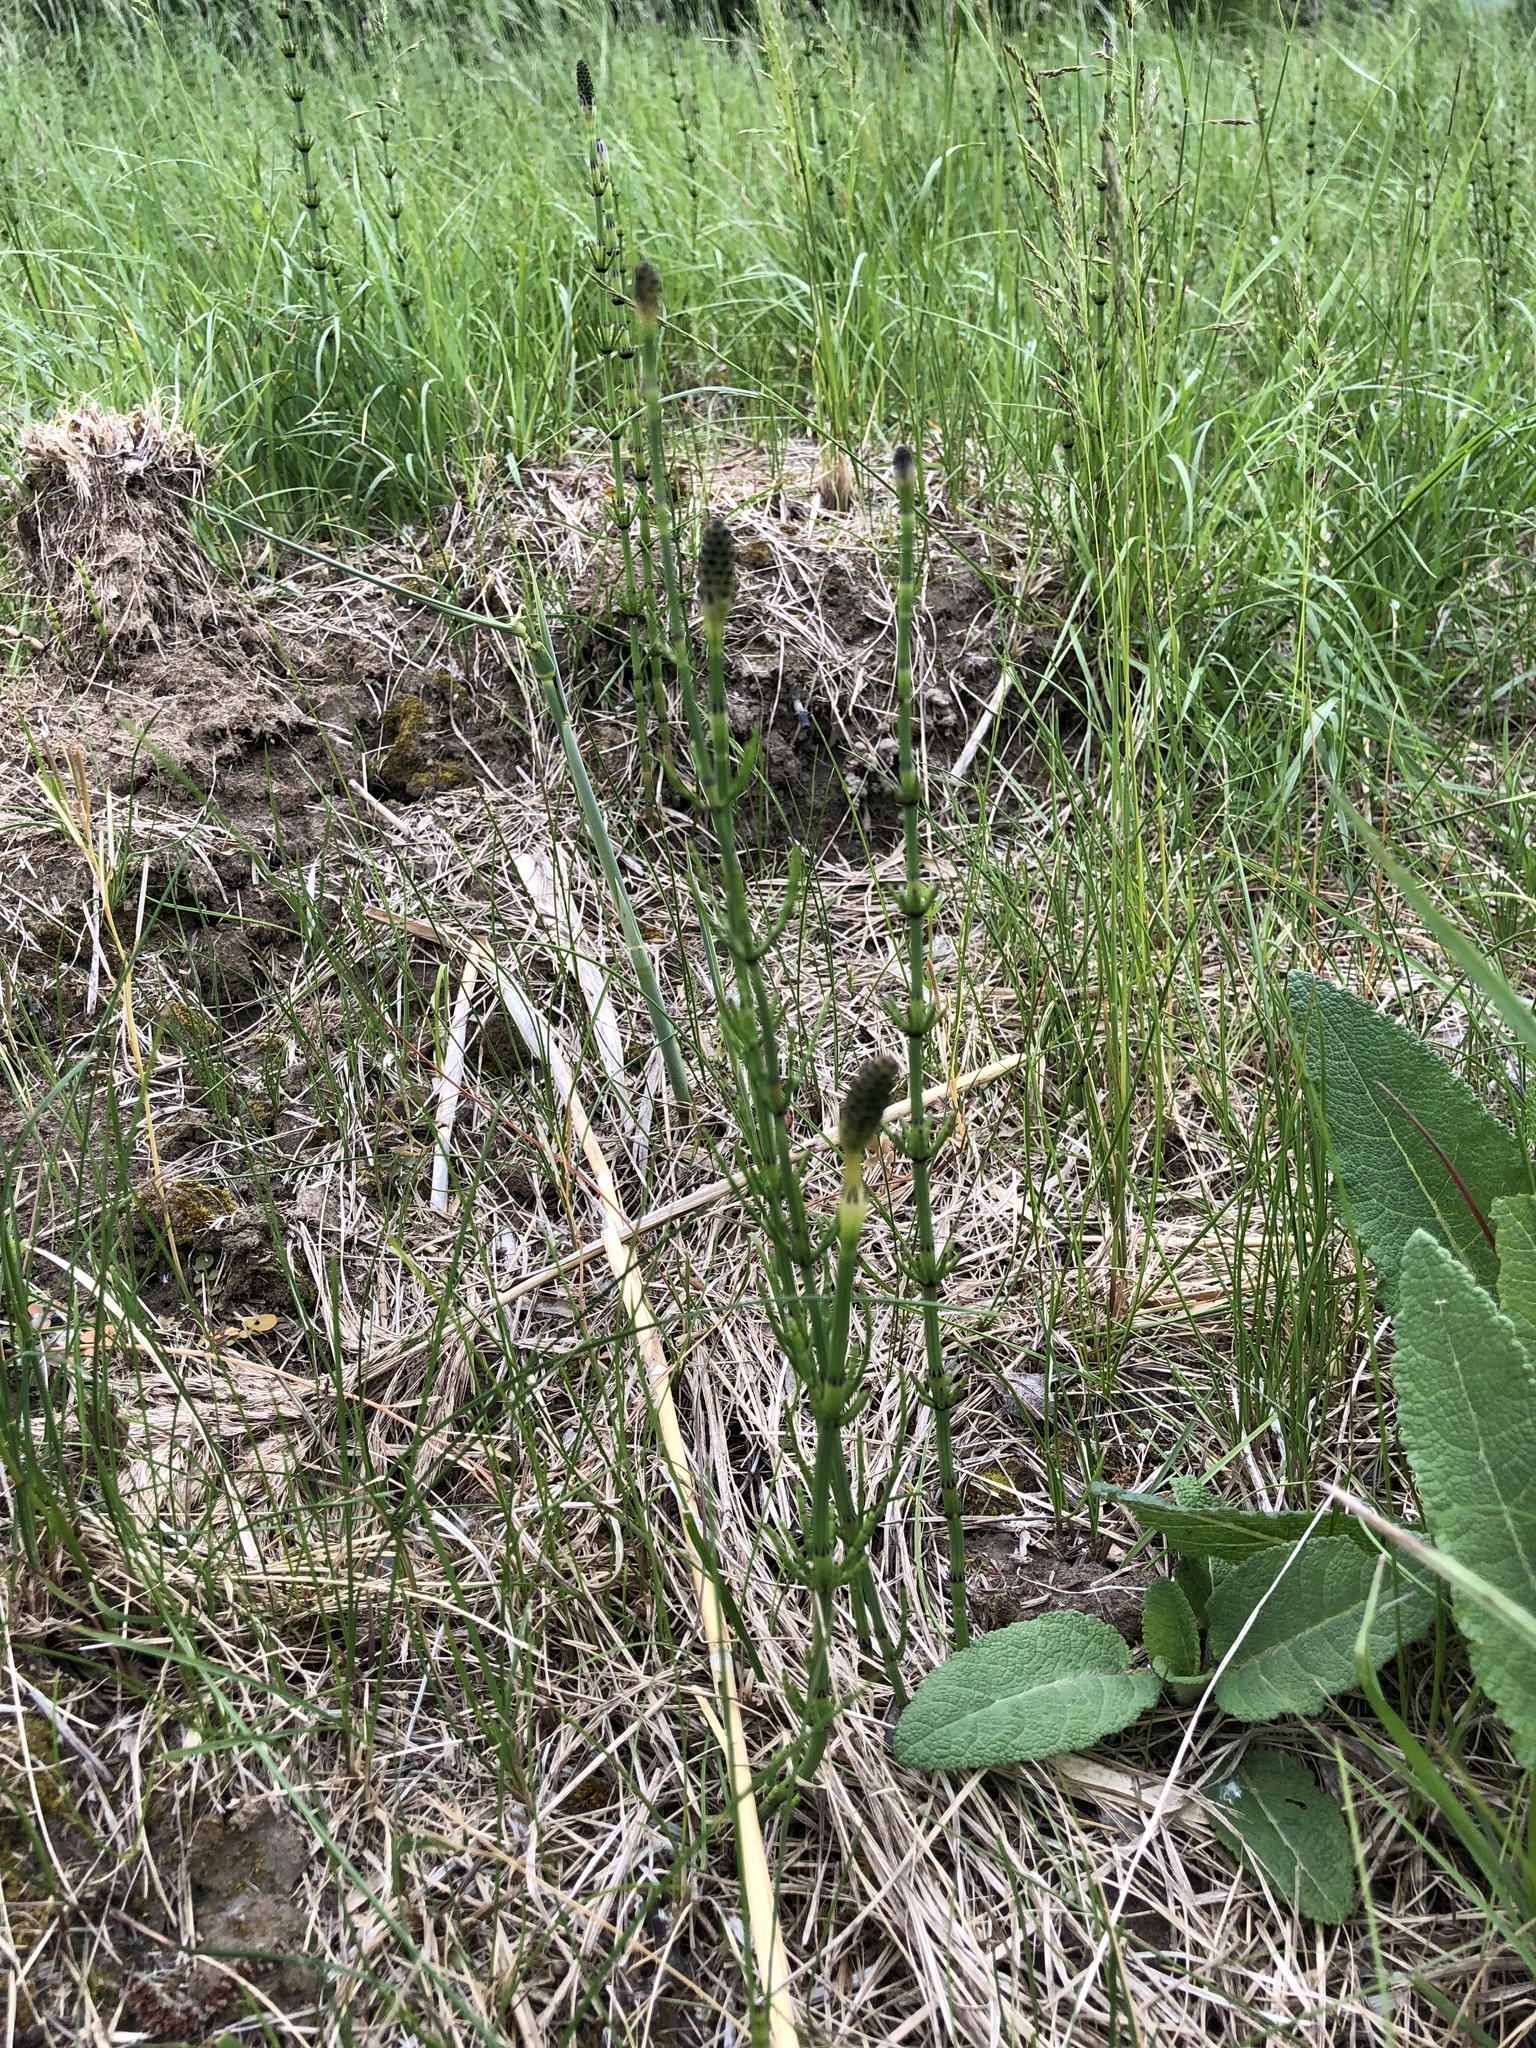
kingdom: Plantae
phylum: Tracheophyta
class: Polypodiopsida
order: Equisetales
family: Equisetaceae
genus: Equisetum
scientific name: Equisetum palustre
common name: Marsh horsetail
